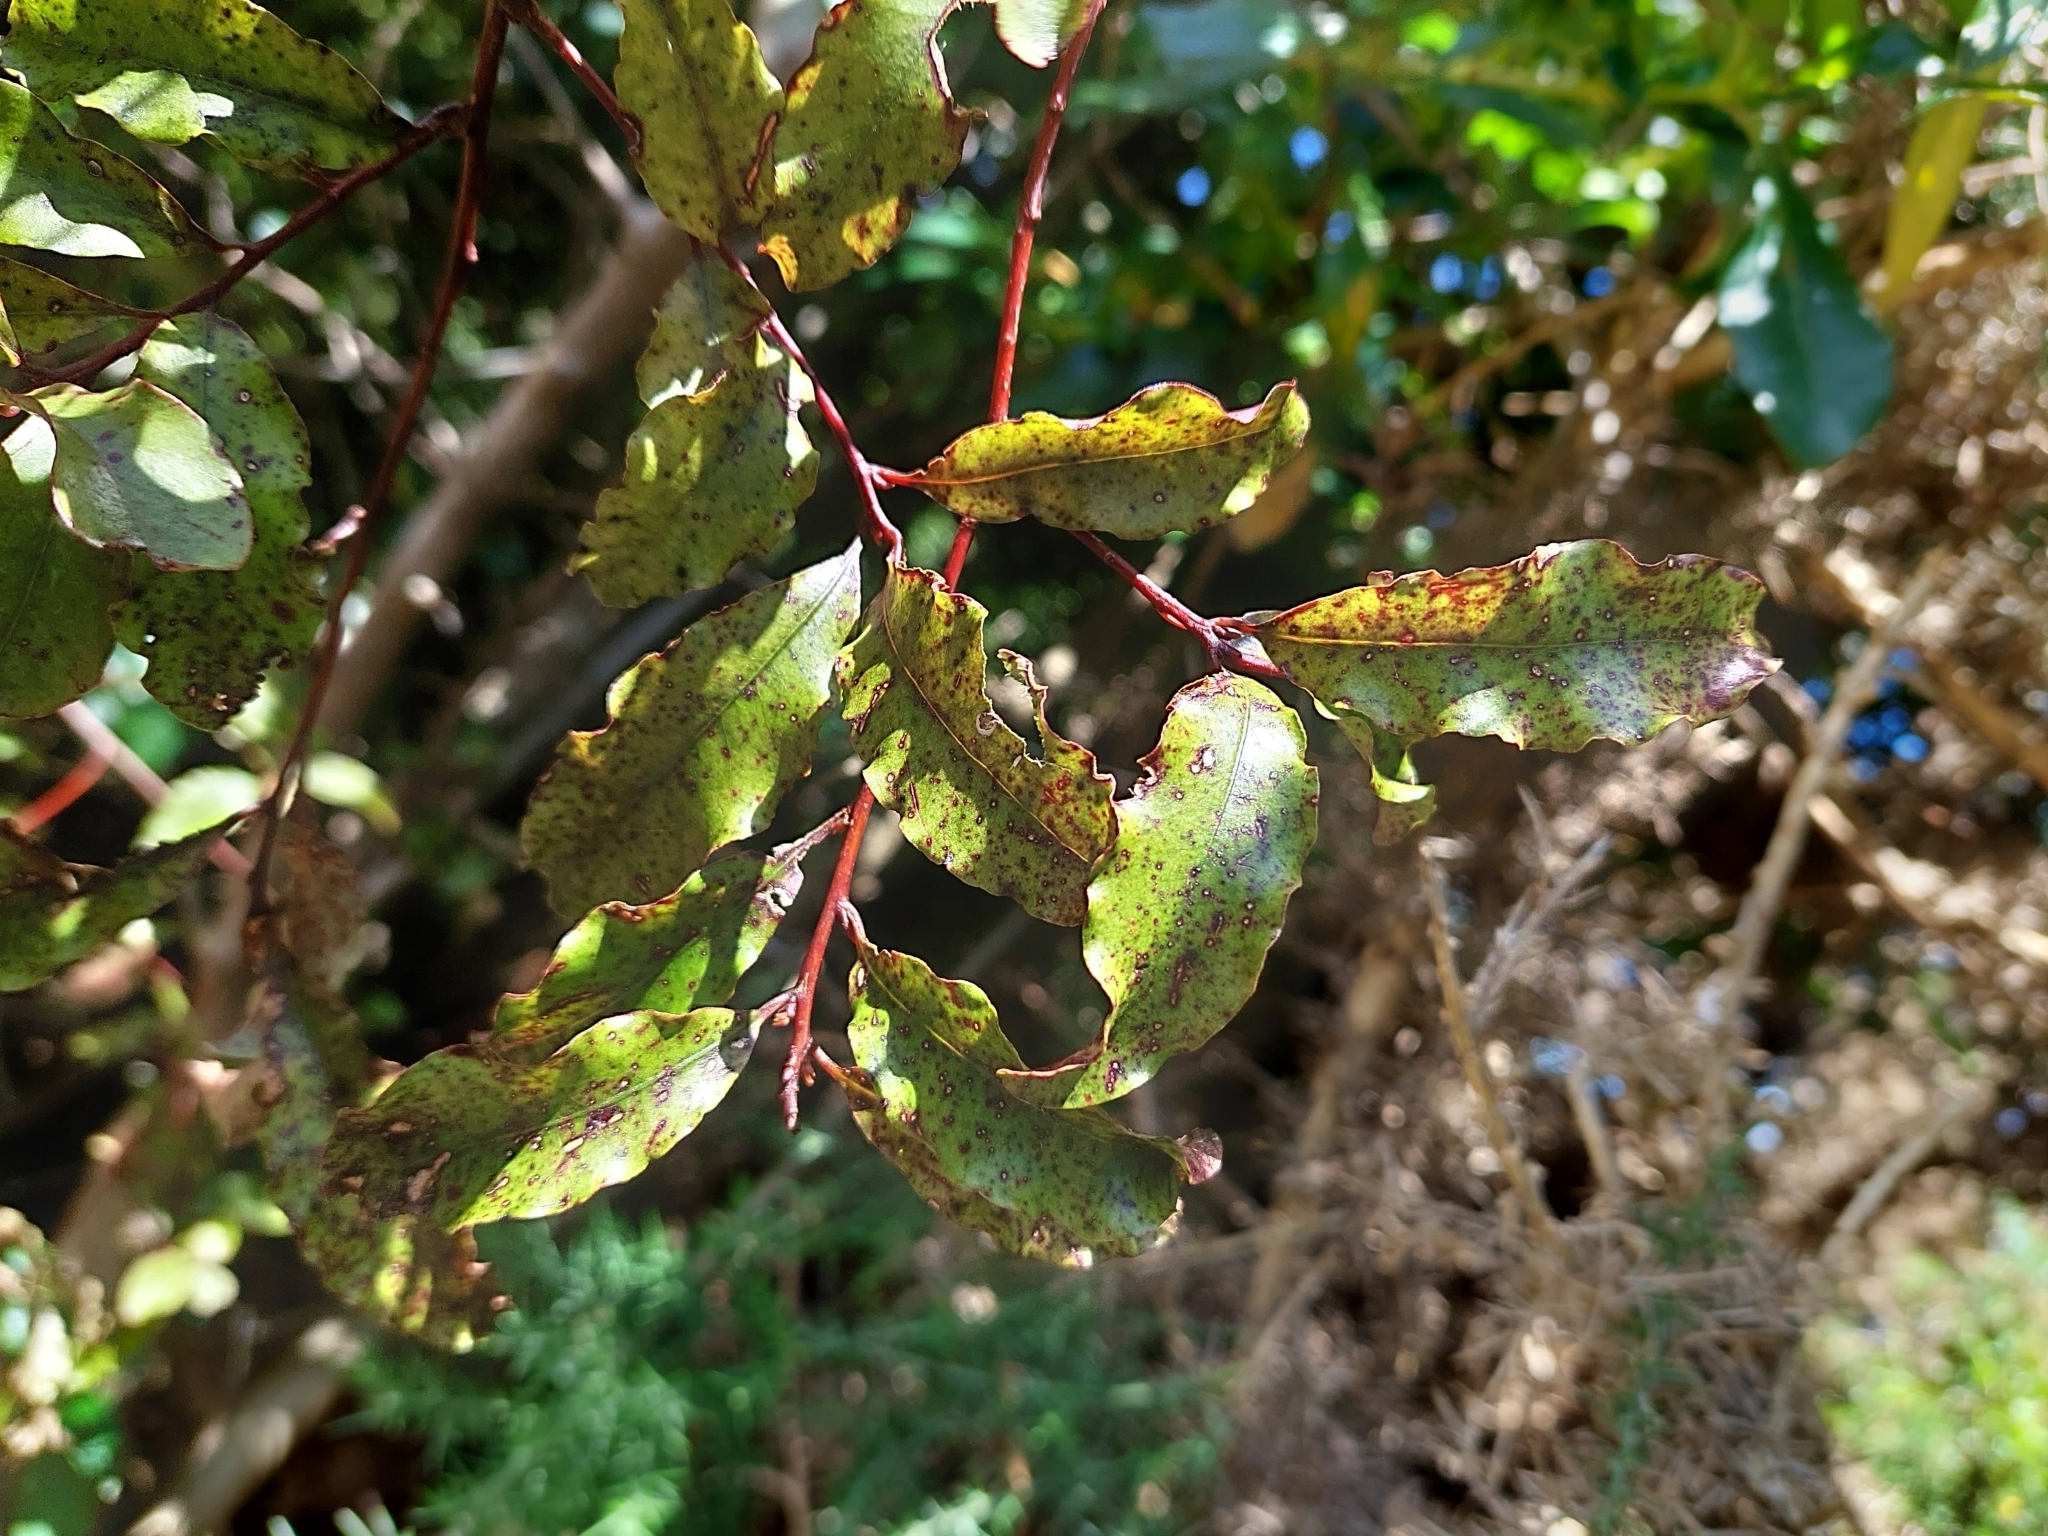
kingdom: Plantae
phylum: Tracheophyta
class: Magnoliopsida
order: Ericales
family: Primulaceae
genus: Myrsine
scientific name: Myrsine australis
